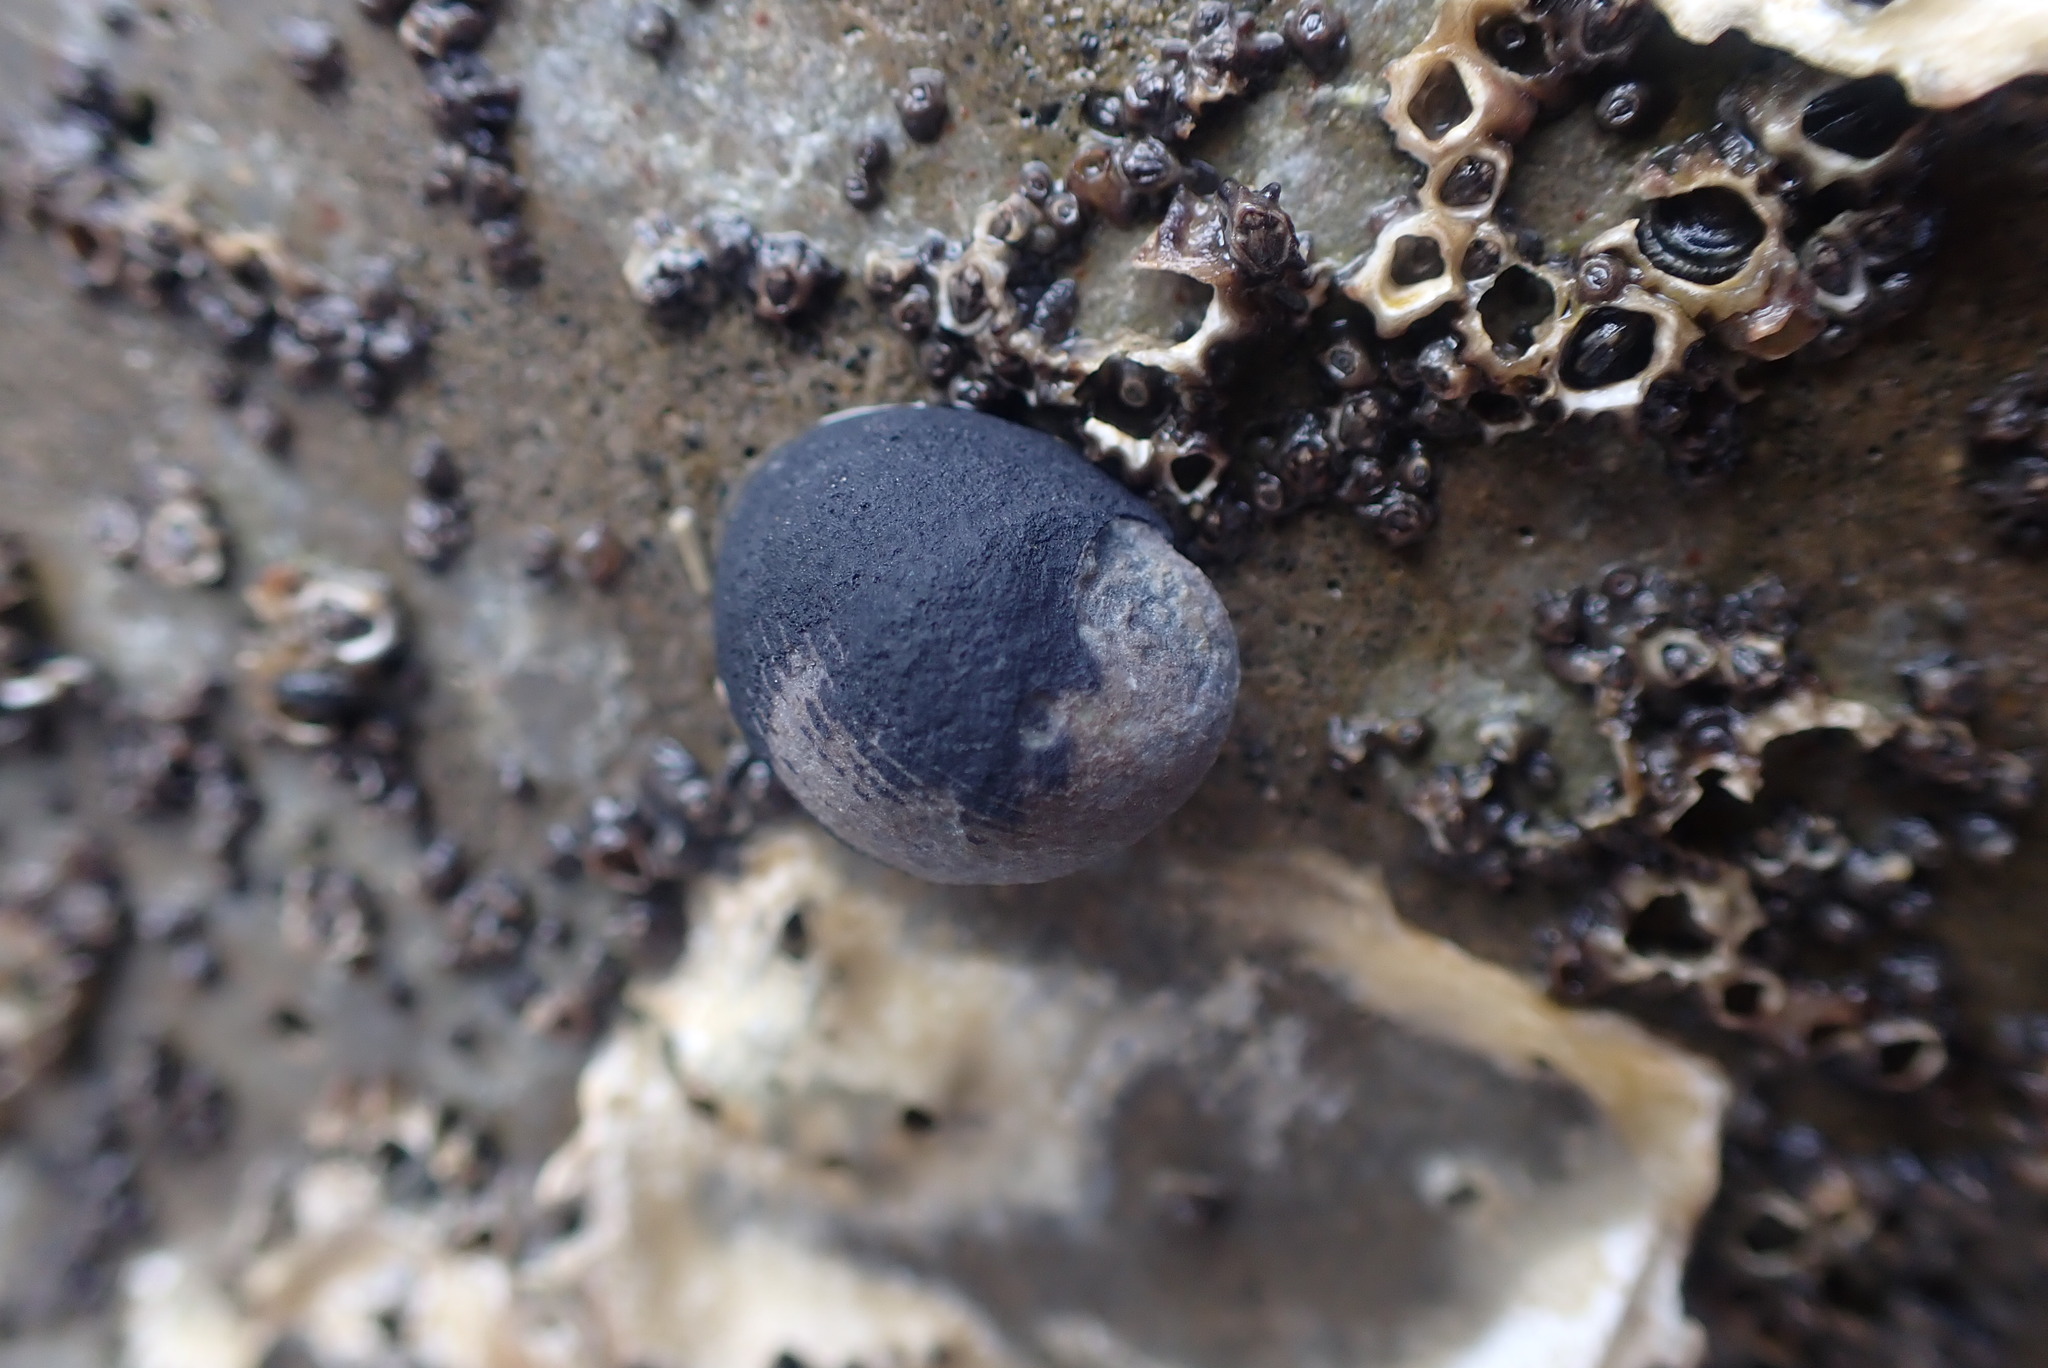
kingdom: Animalia
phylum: Mollusca
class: Gastropoda
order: Cycloneritida
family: Neritidae
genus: Nerita
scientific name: Nerita melanotragus
